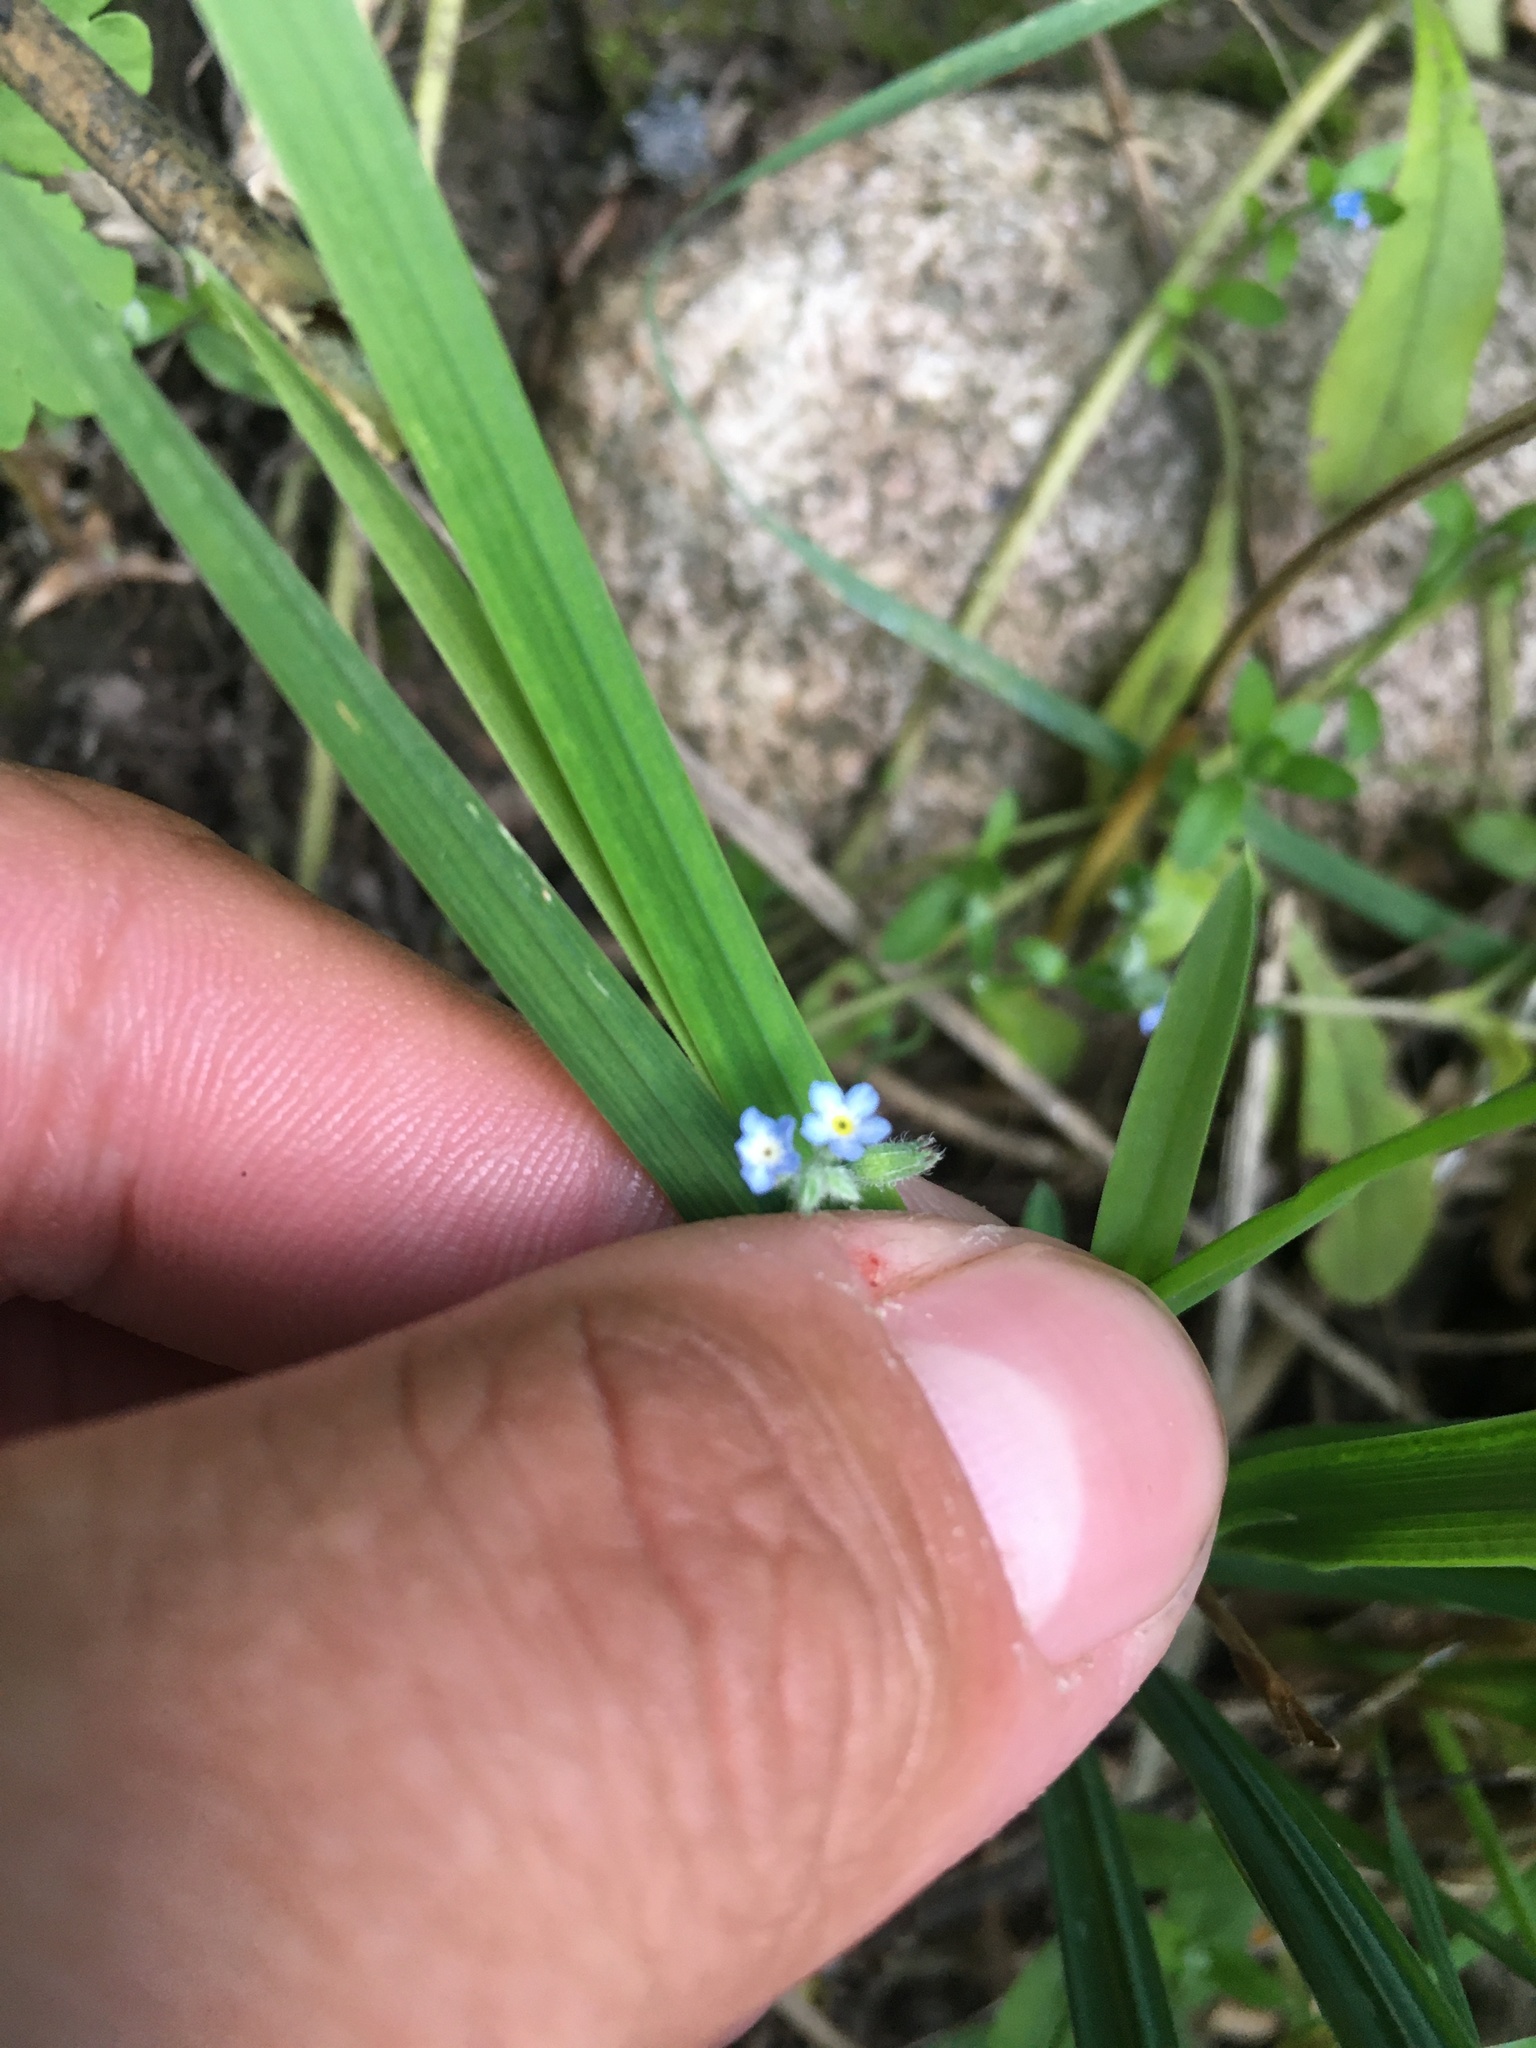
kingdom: Plantae
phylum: Tracheophyta
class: Magnoliopsida
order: Boraginales
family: Boraginaceae
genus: Myosotis
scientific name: Myosotis arvensis
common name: Field forget-me-not
